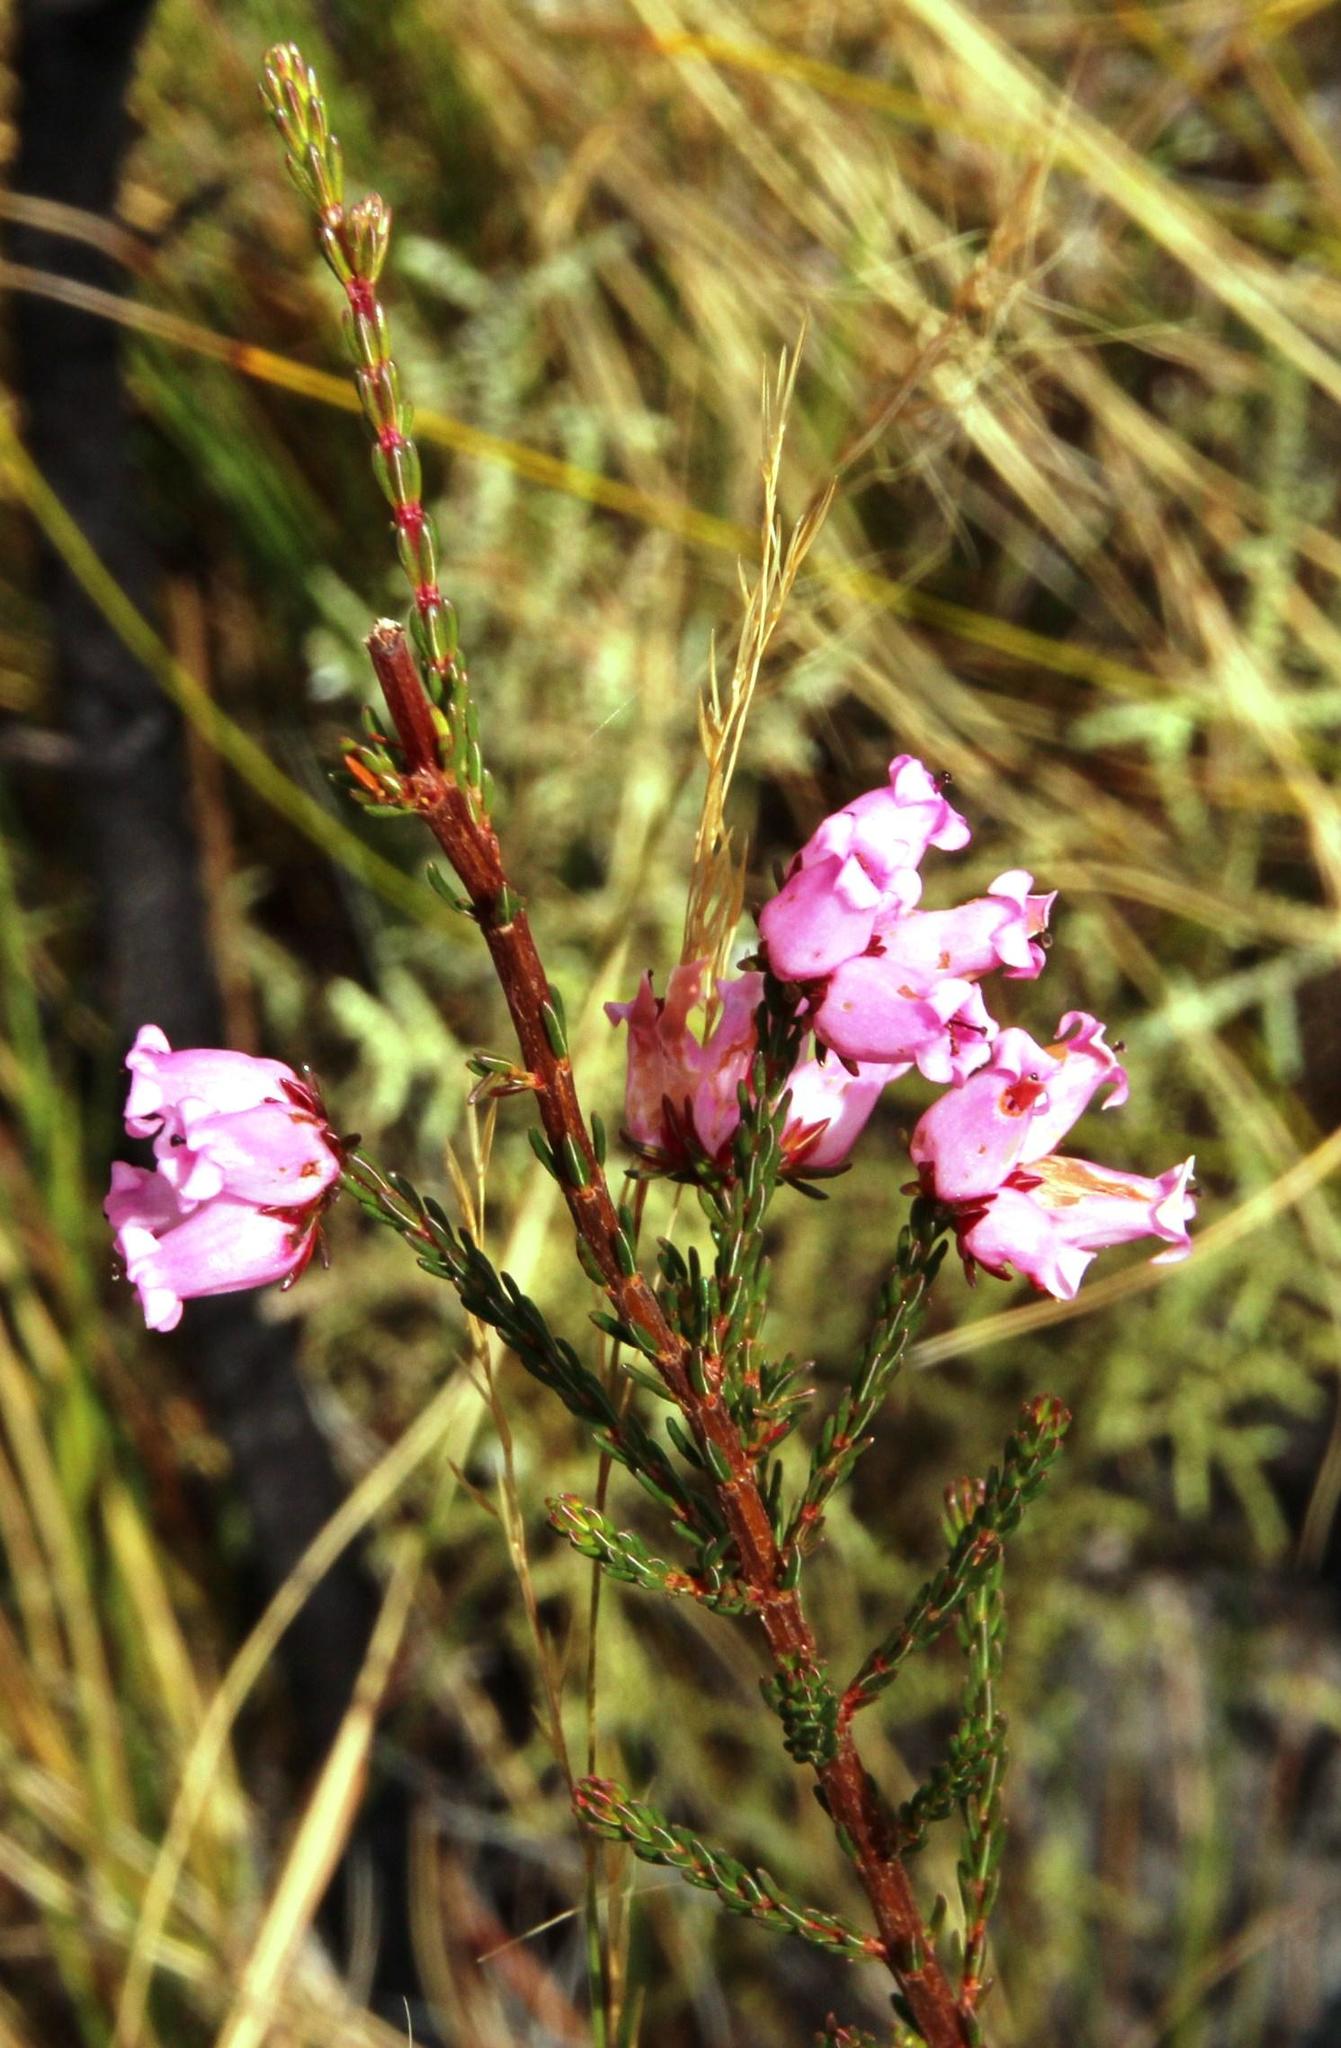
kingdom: Plantae
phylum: Tracheophyta
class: Magnoliopsida
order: Ericales
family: Ericaceae
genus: Erica
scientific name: Erica daphniflora
